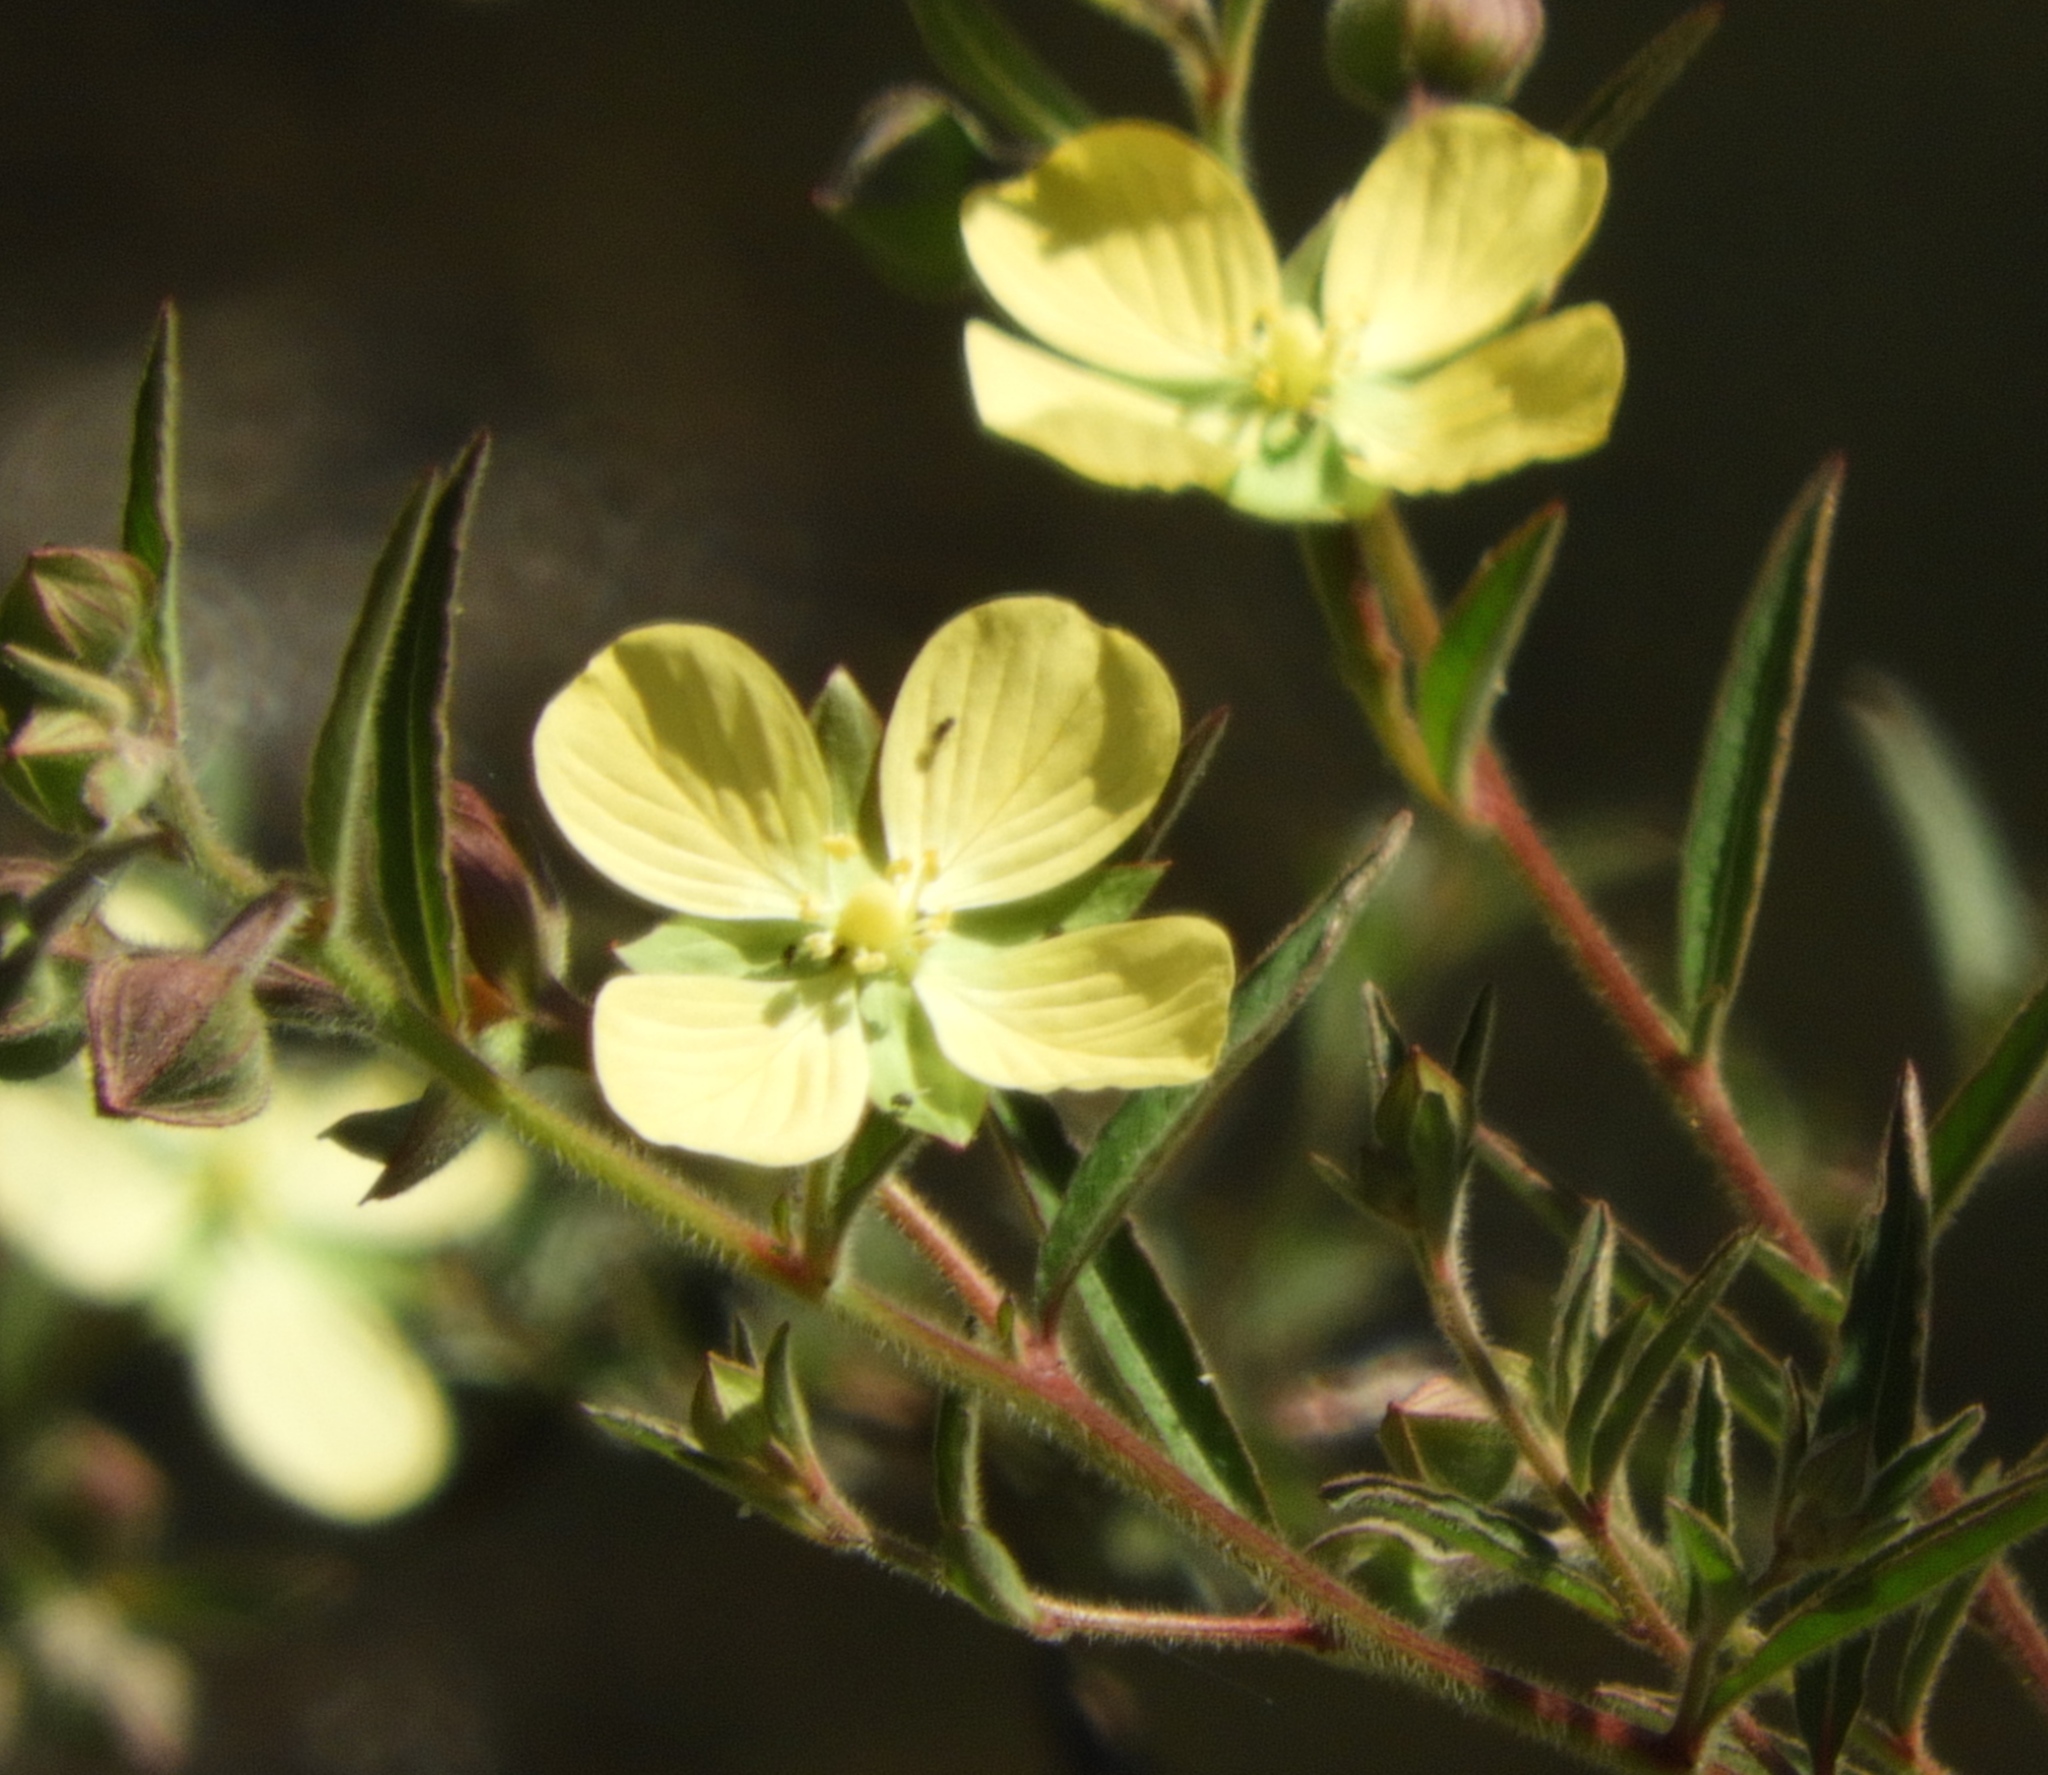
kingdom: Plantae
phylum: Tracheophyta
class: Magnoliopsida
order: Myrtales
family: Onagraceae
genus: Ludwigia
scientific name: Ludwigia octovalvis
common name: Water-primrose
